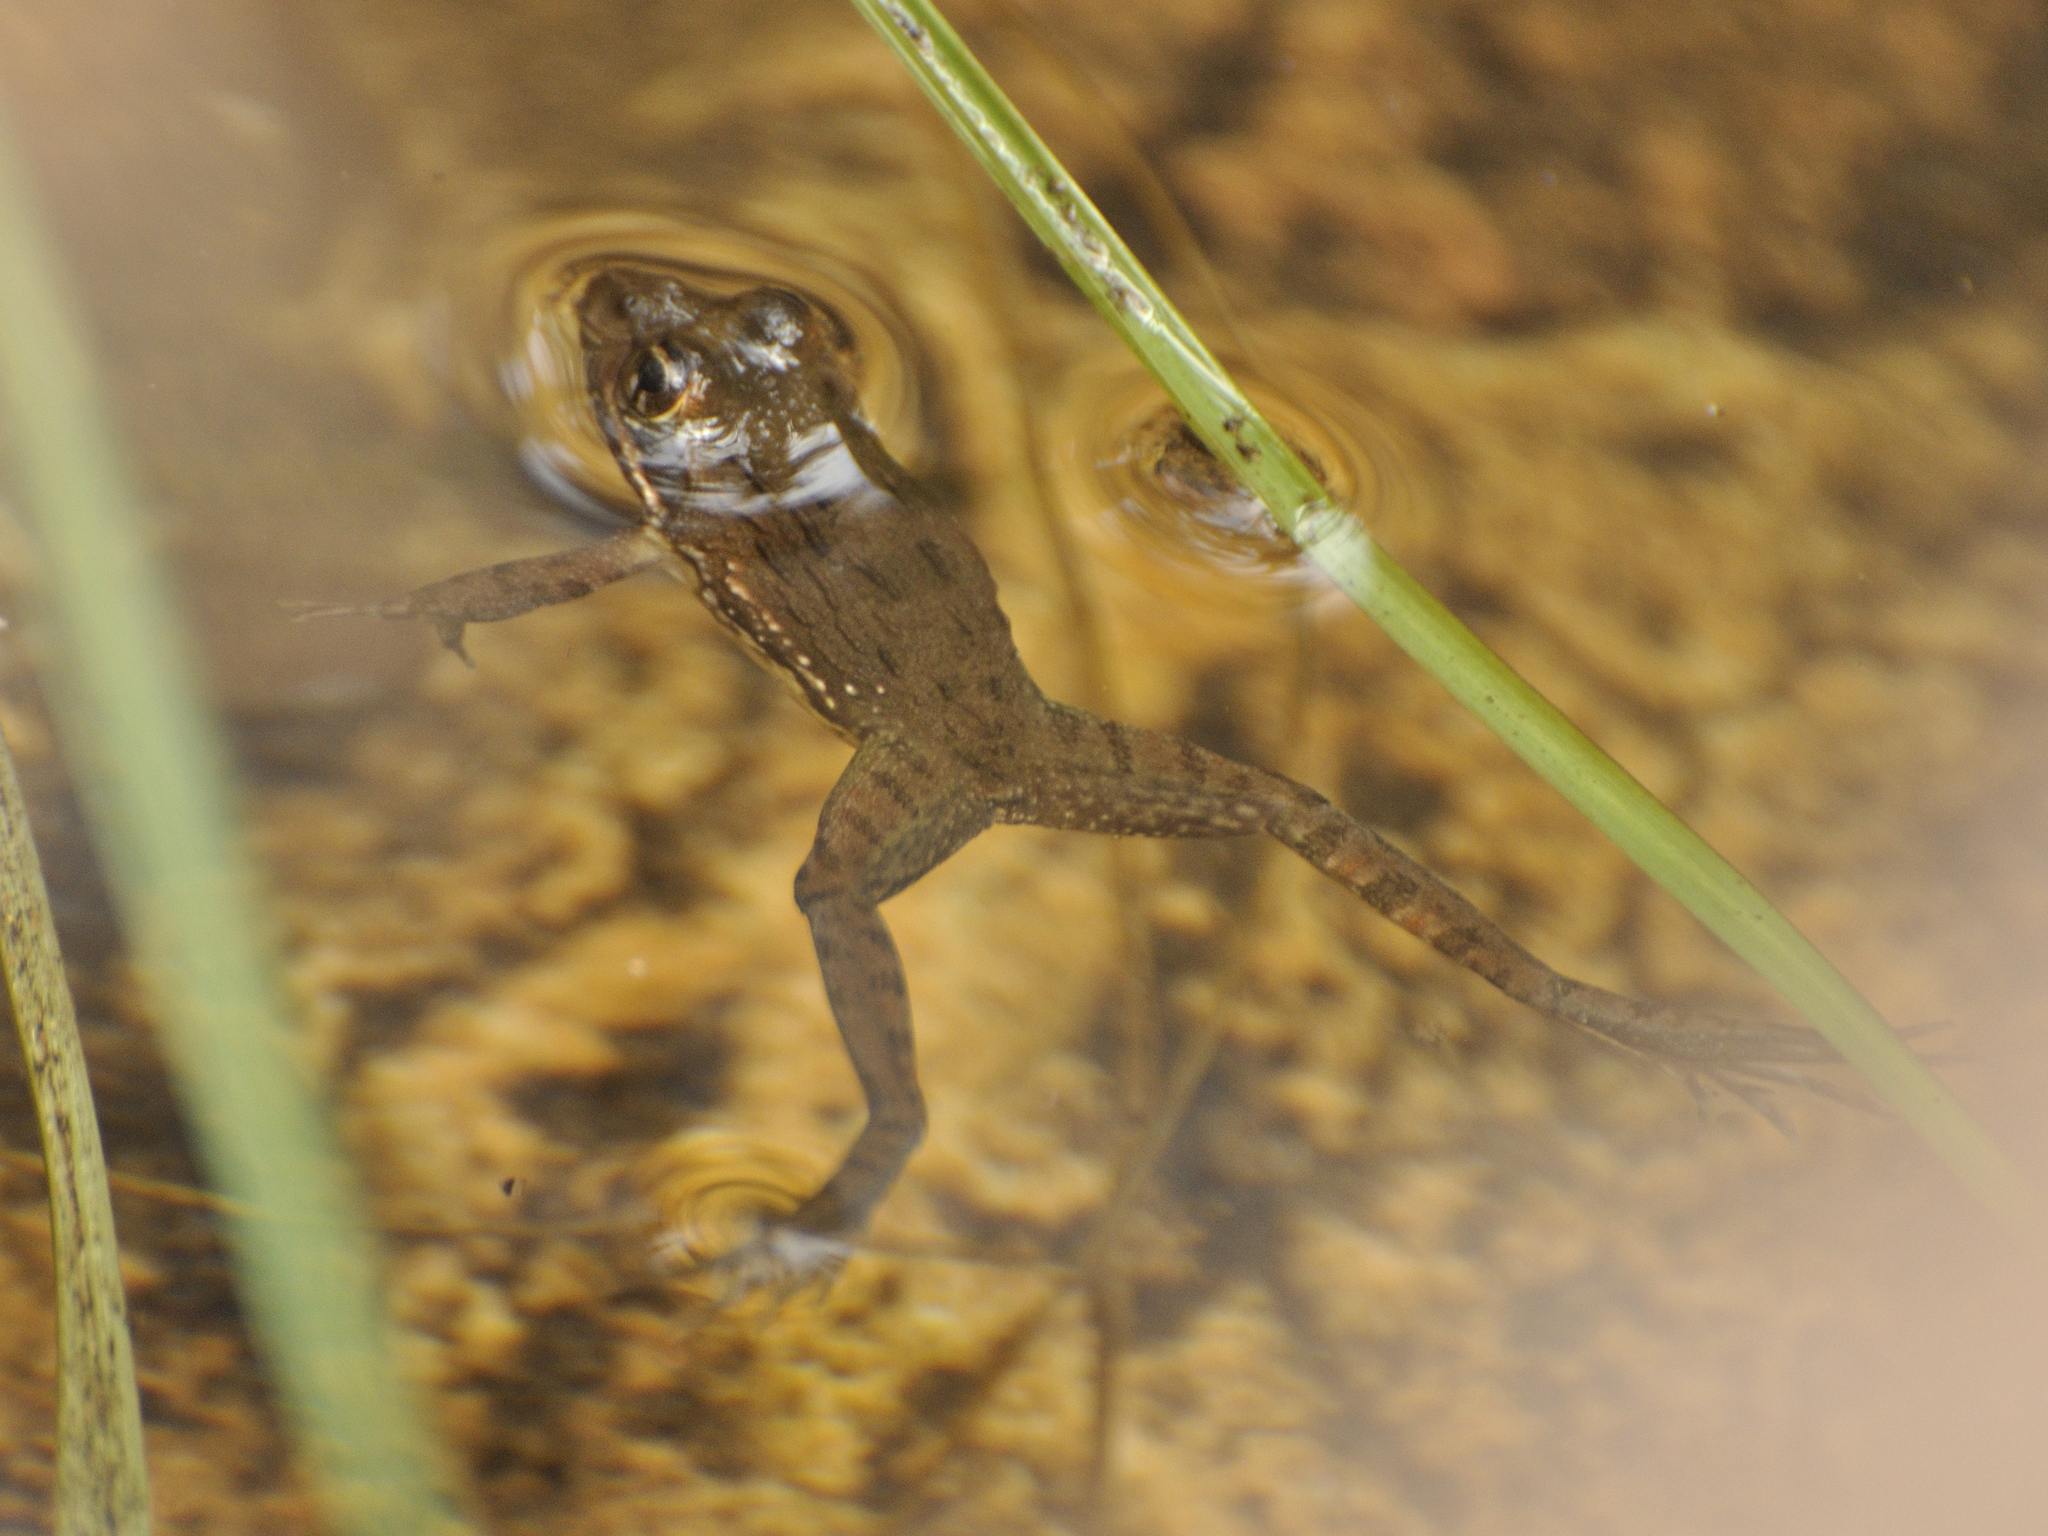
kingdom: Animalia
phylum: Chordata
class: Amphibia
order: Anura
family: Pyxicephalidae
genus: Amietia
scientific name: Amietia fuscigula
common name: Cape rana
